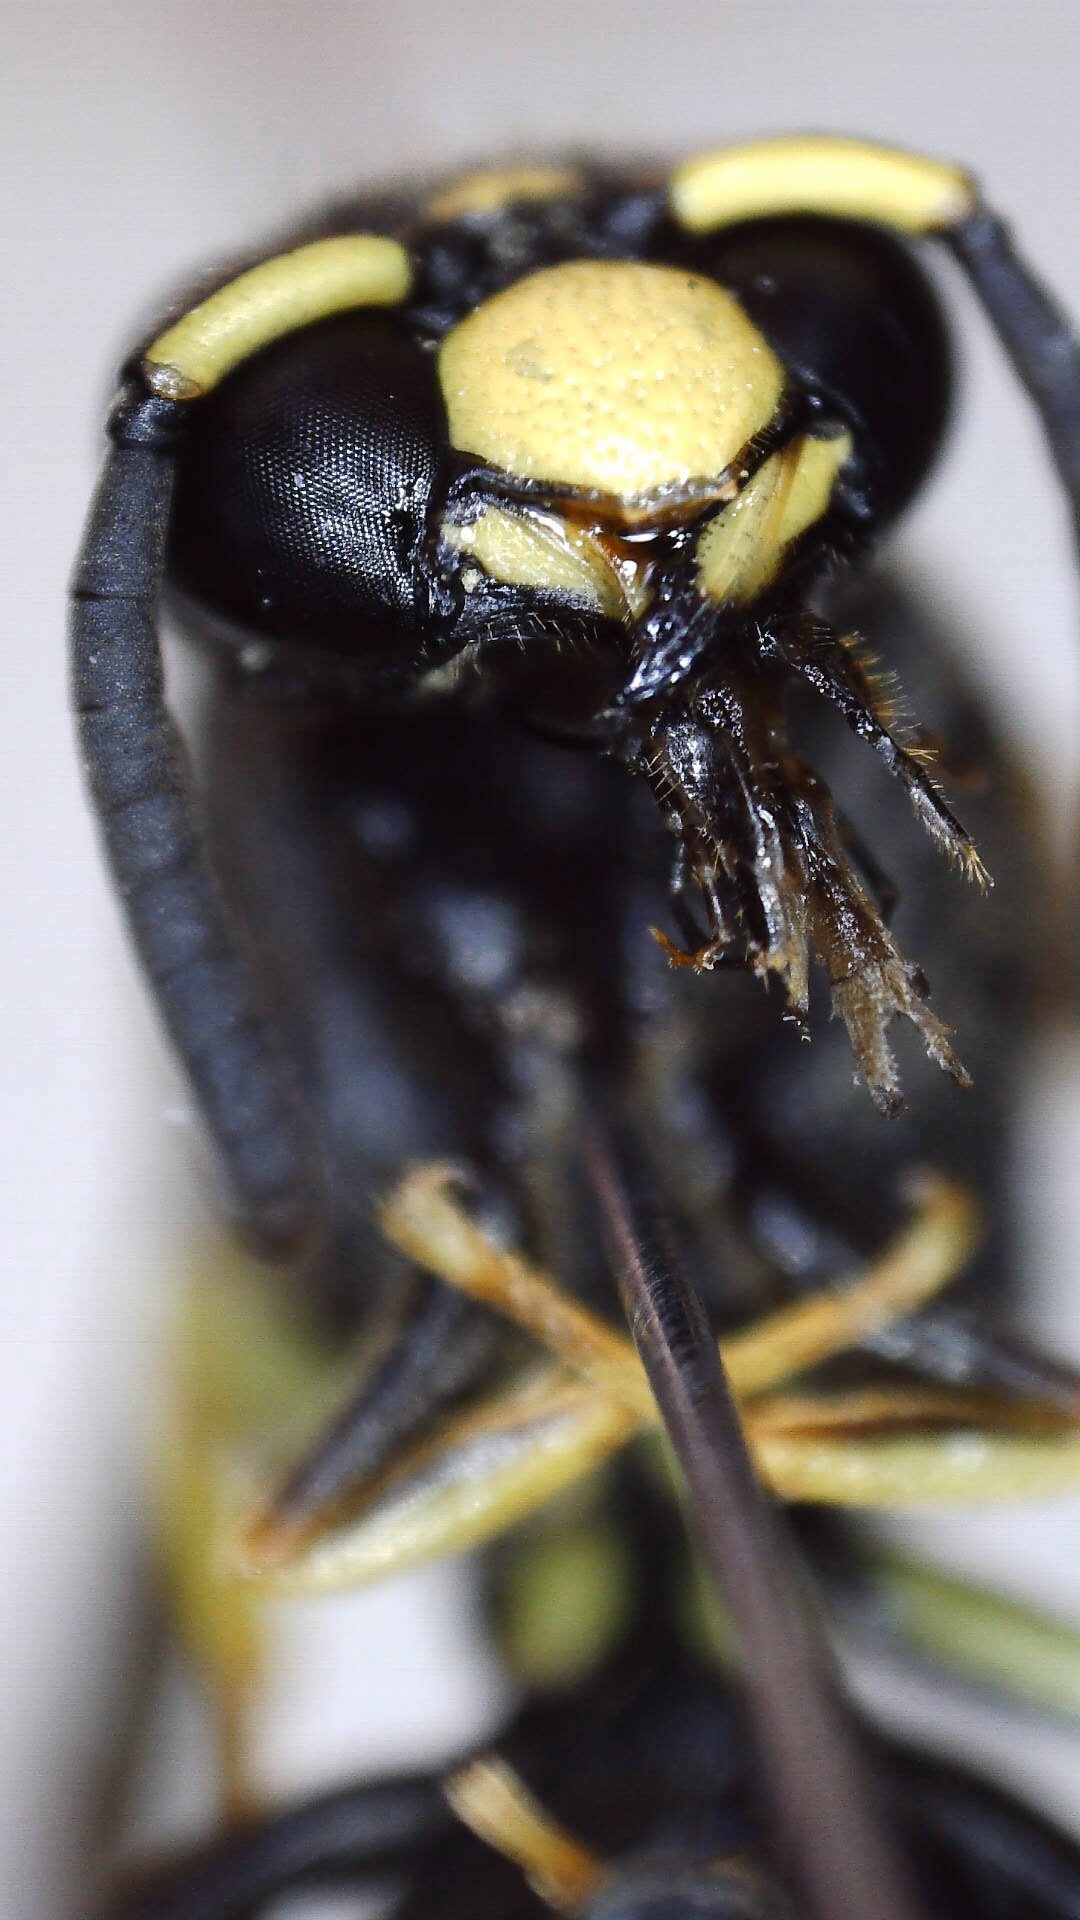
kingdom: Animalia
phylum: Arthropoda
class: Insecta
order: Hymenoptera
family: Eumenidae
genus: Euodynerus
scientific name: Euodynerus foraminatus
